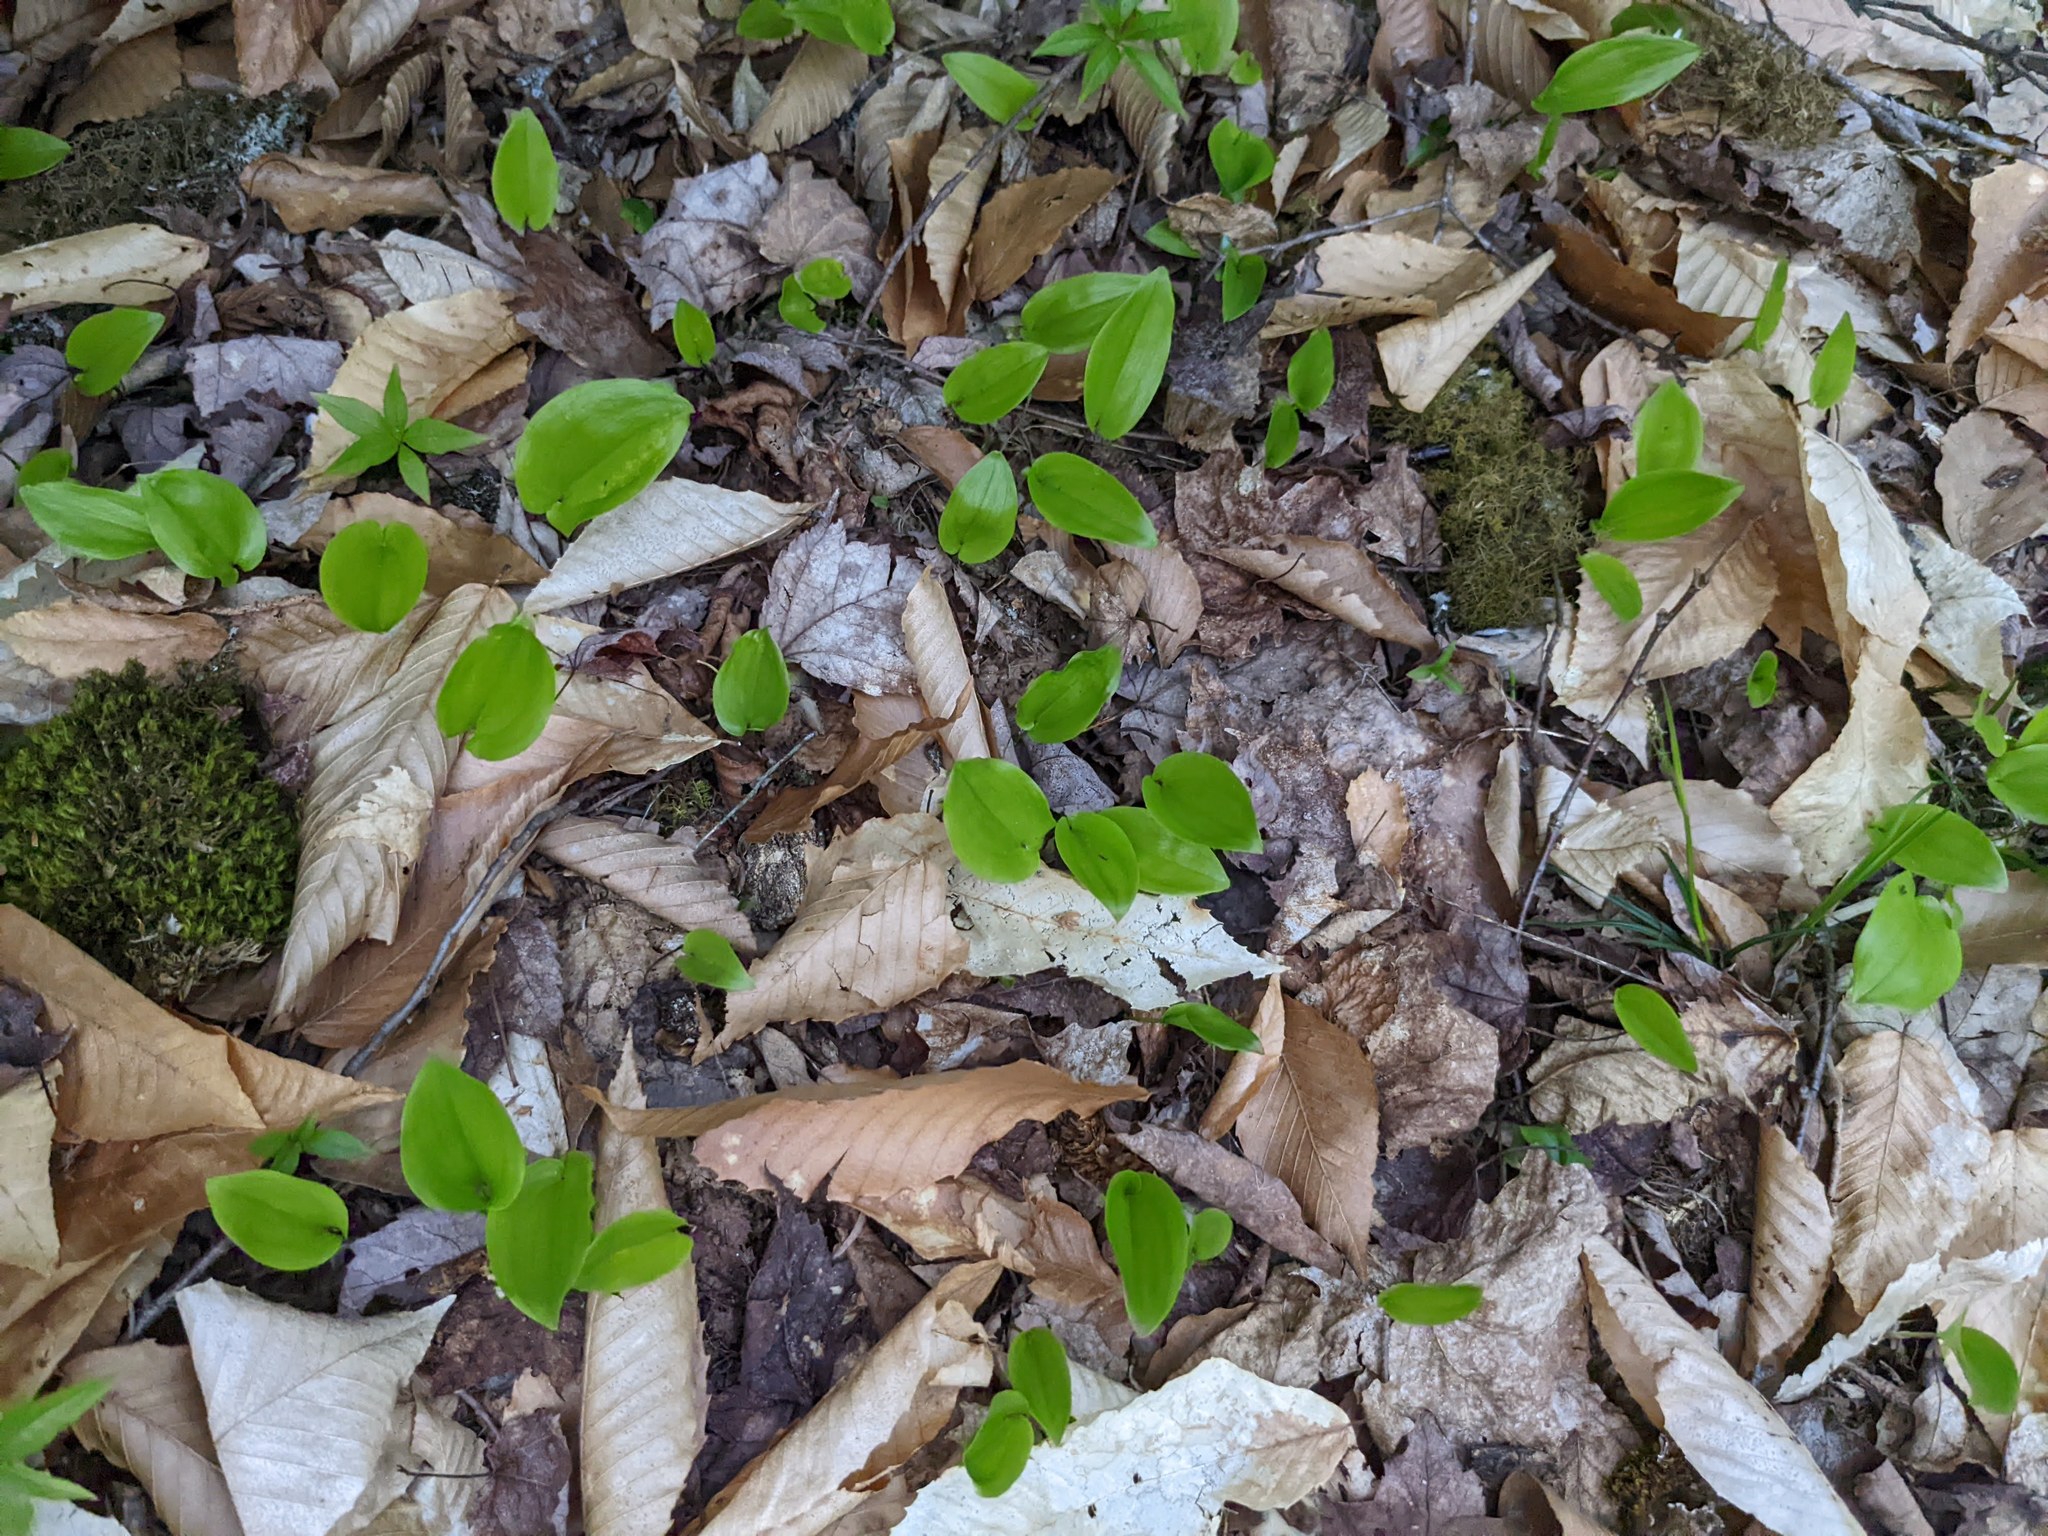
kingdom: Plantae
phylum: Tracheophyta
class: Liliopsida
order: Asparagales
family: Asparagaceae
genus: Maianthemum
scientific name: Maianthemum canadense
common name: False lily-of-the-valley
